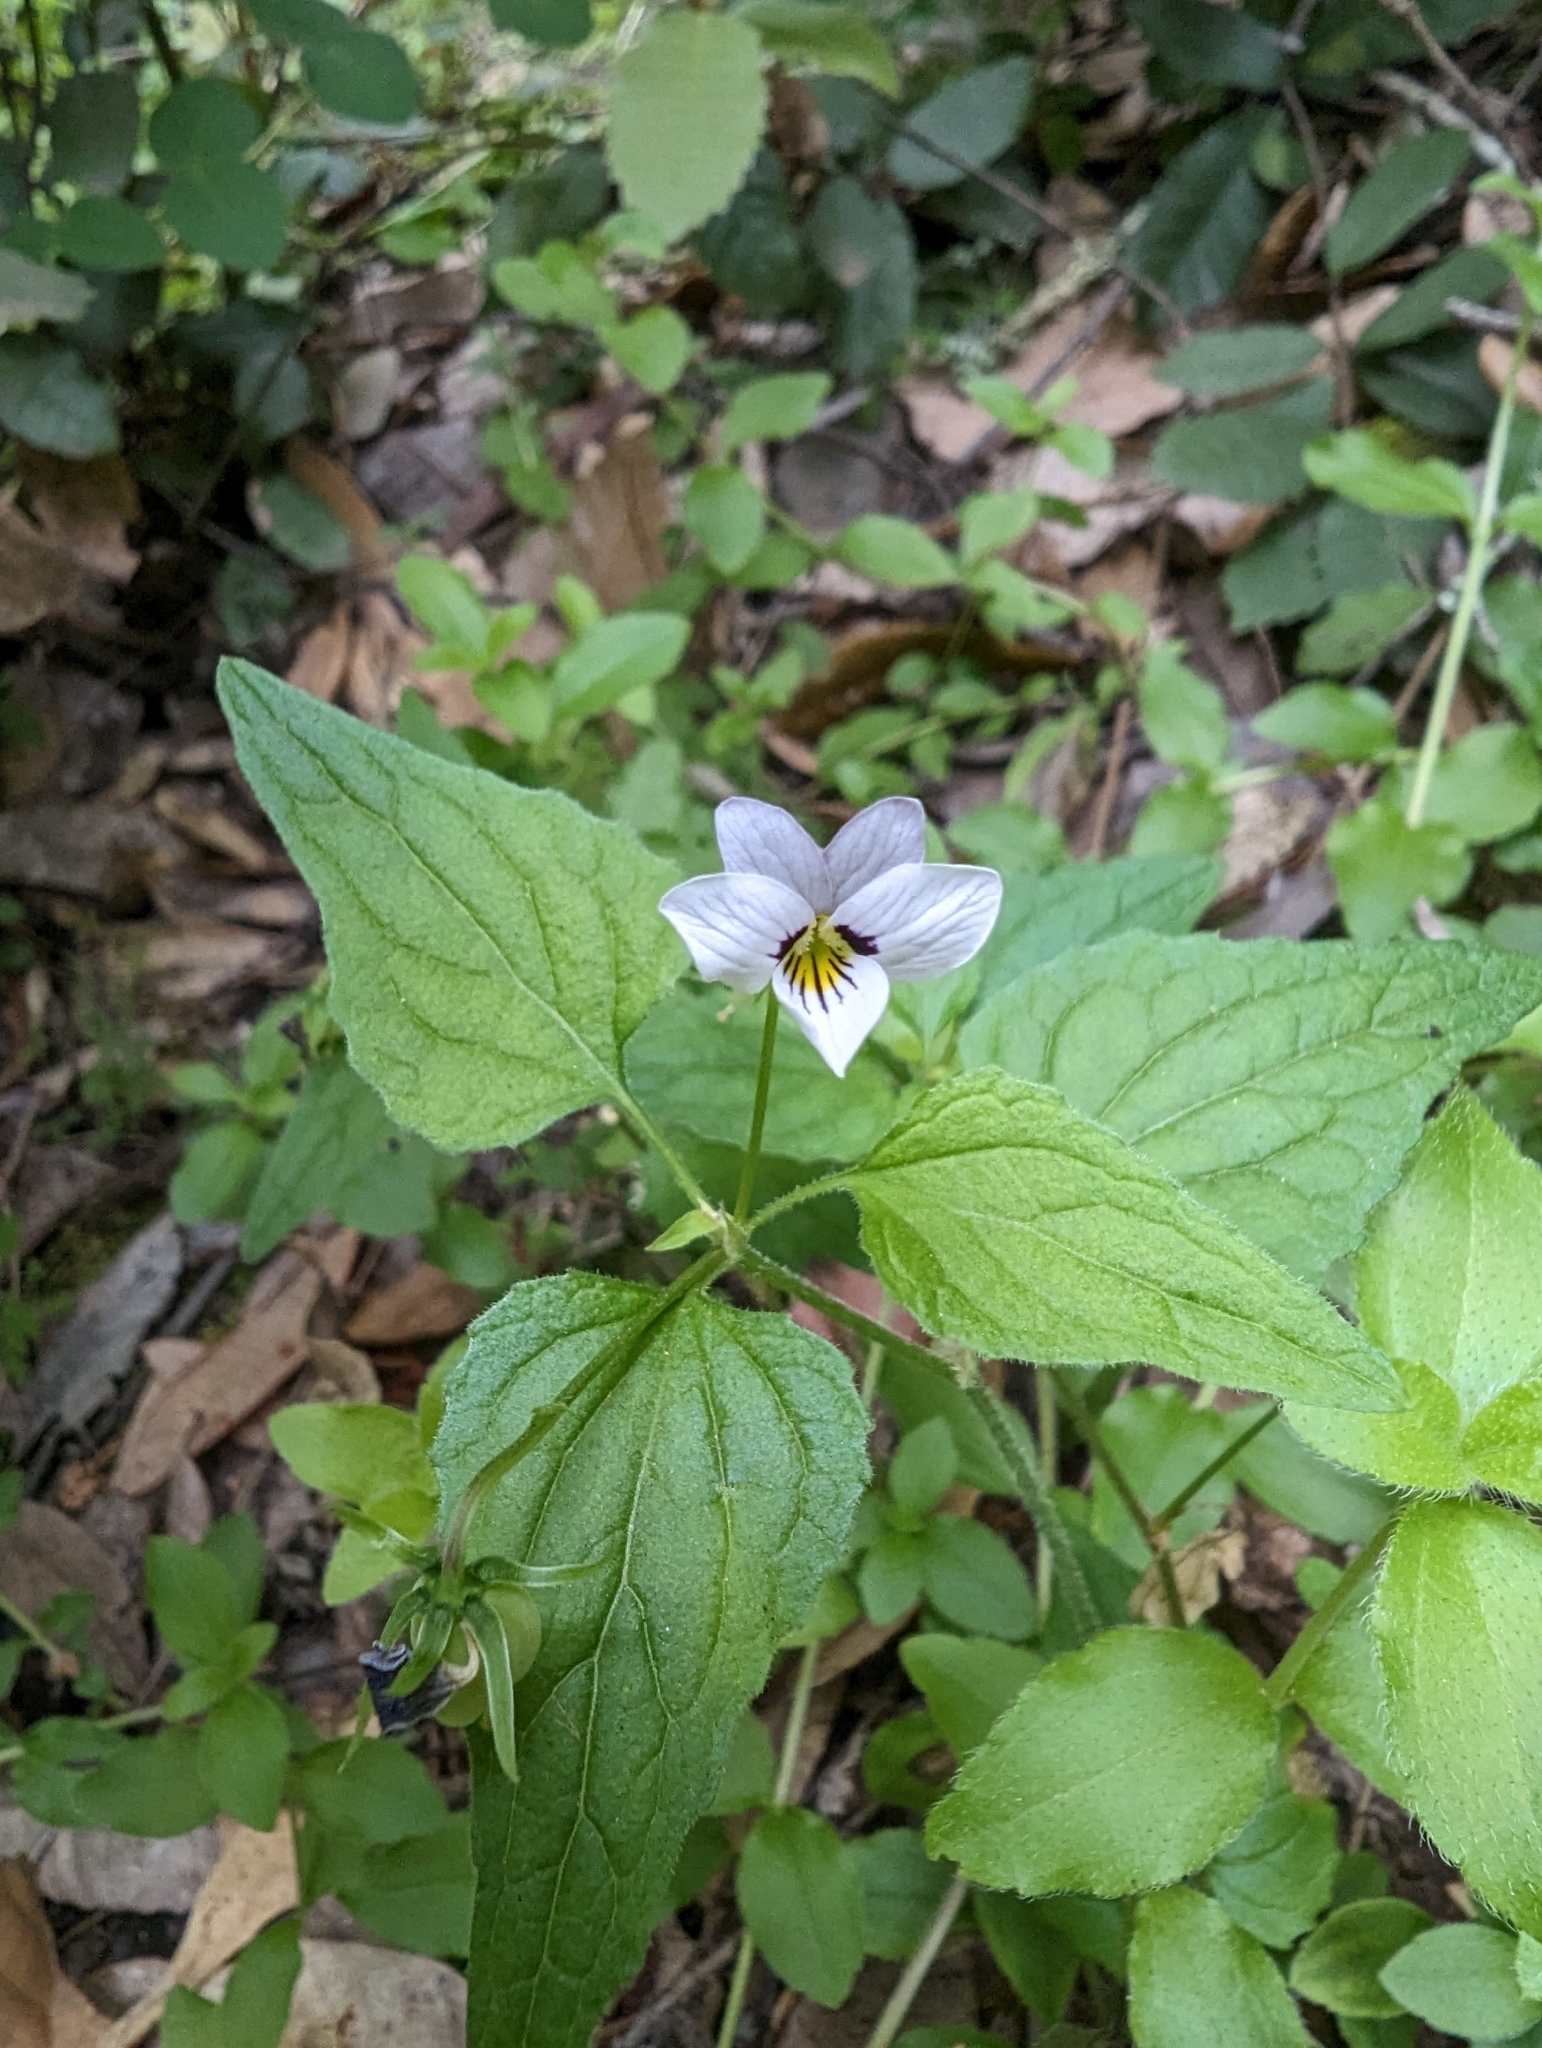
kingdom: Plantae
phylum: Tracheophyta
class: Magnoliopsida
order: Malpighiales
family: Violaceae
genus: Viola
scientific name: Viola ocellata
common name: Western heart's ease
